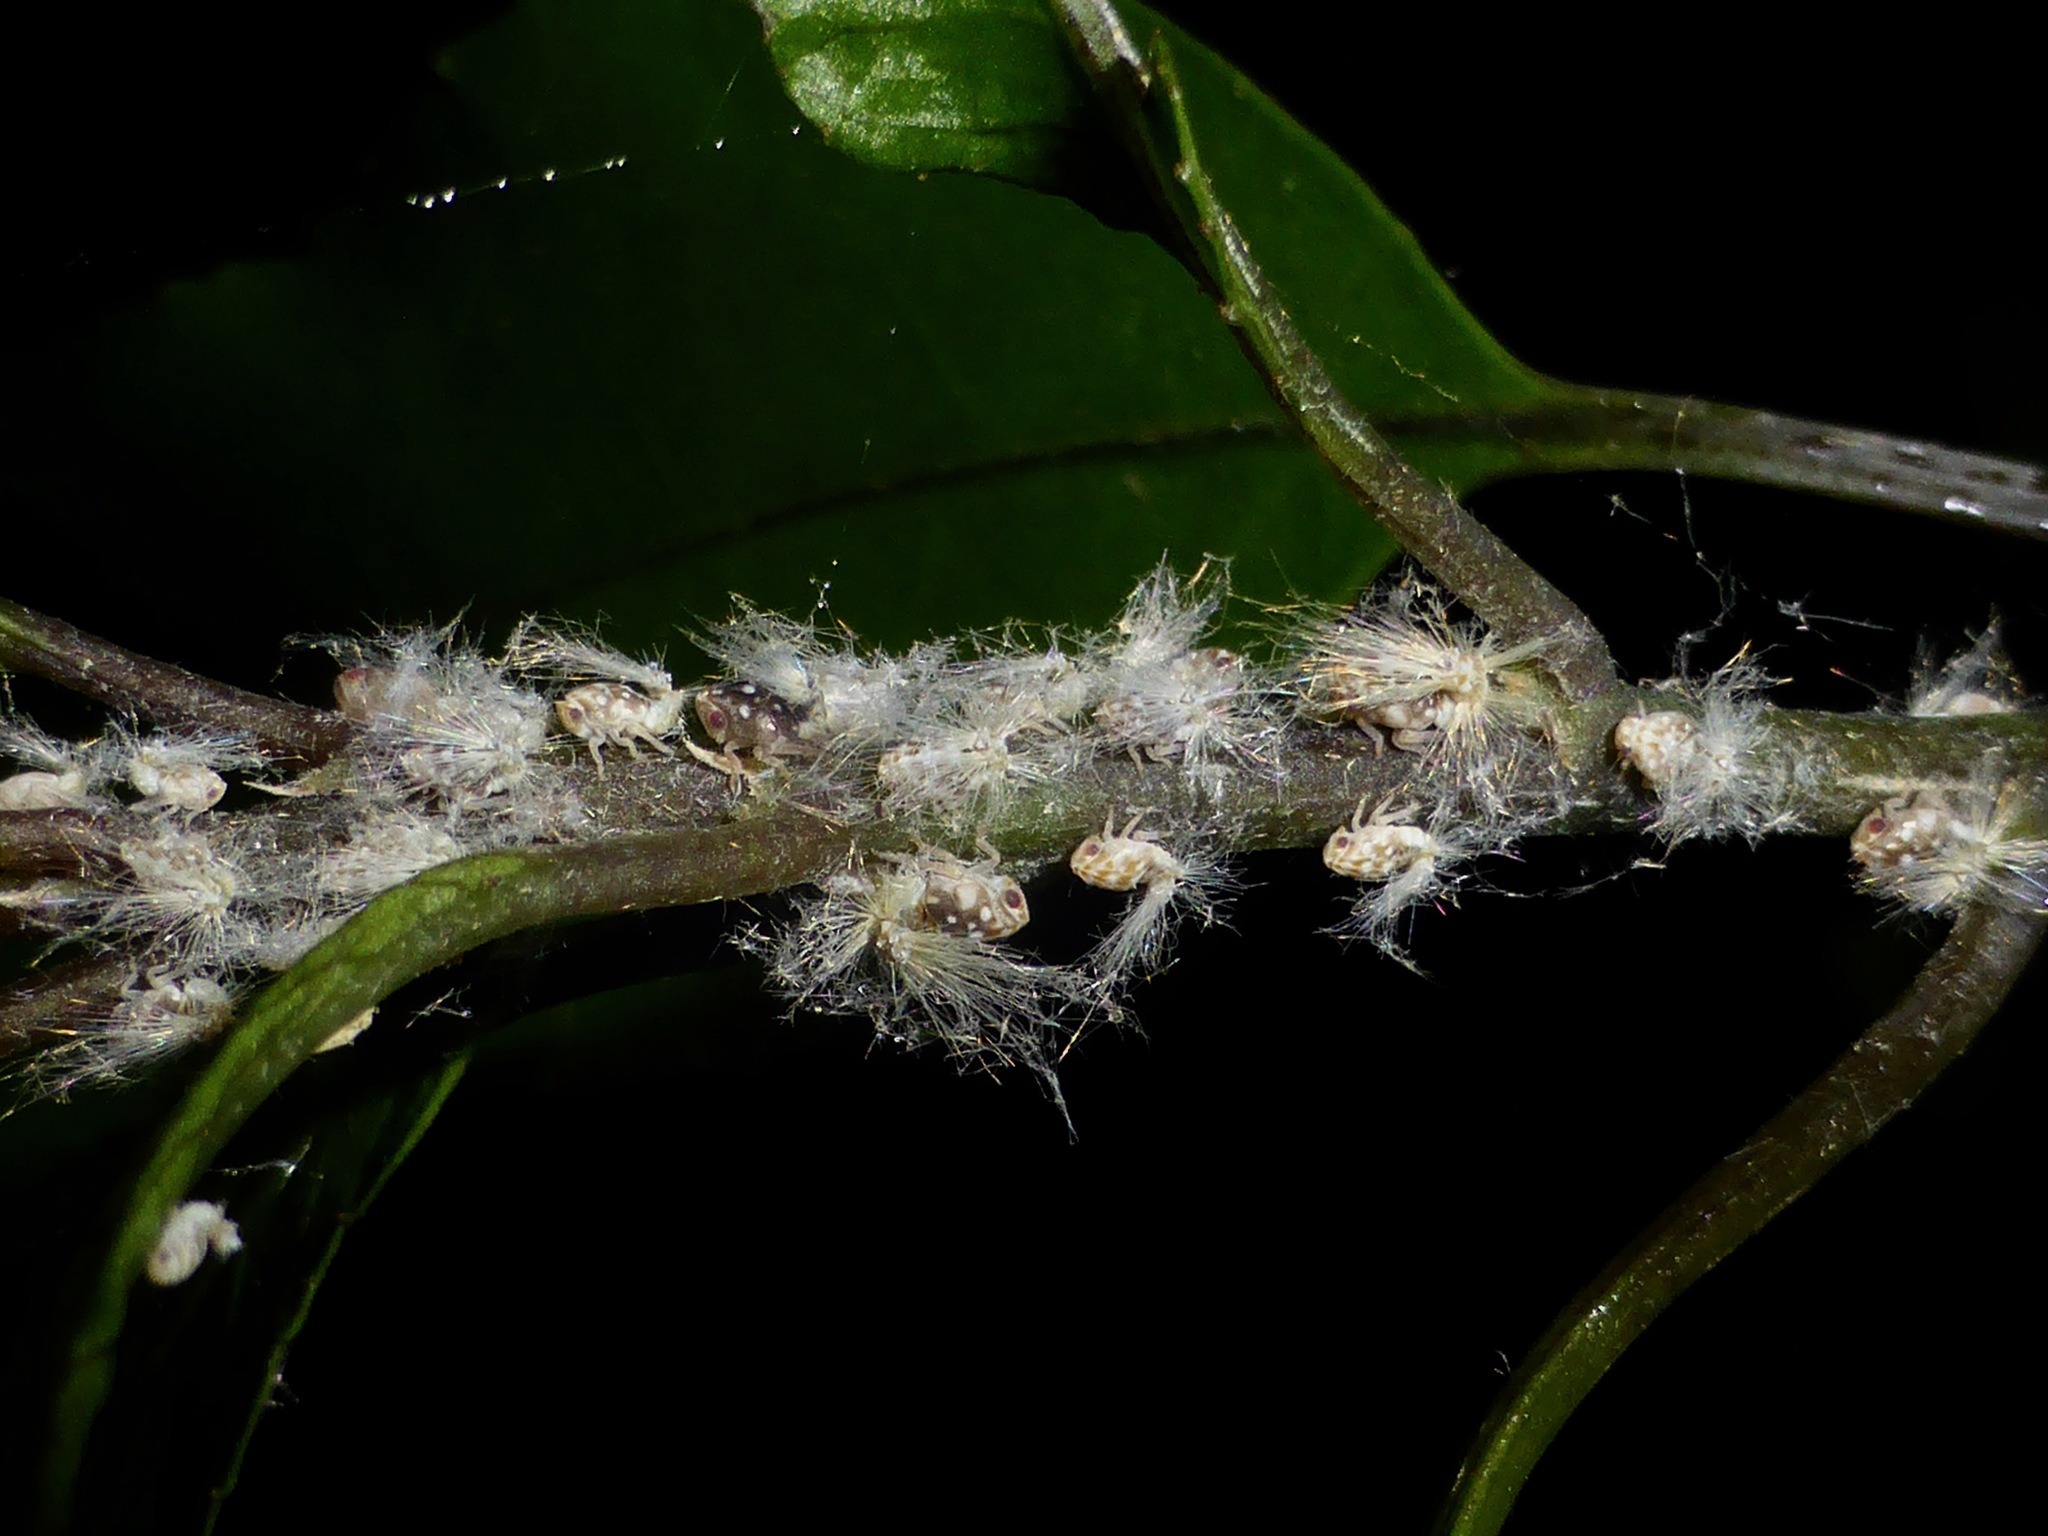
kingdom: Animalia
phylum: Arthropoda
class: Insecta
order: Hemiptera
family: Ricaniidae
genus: Scolypopa
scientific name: Scolypopa australis
